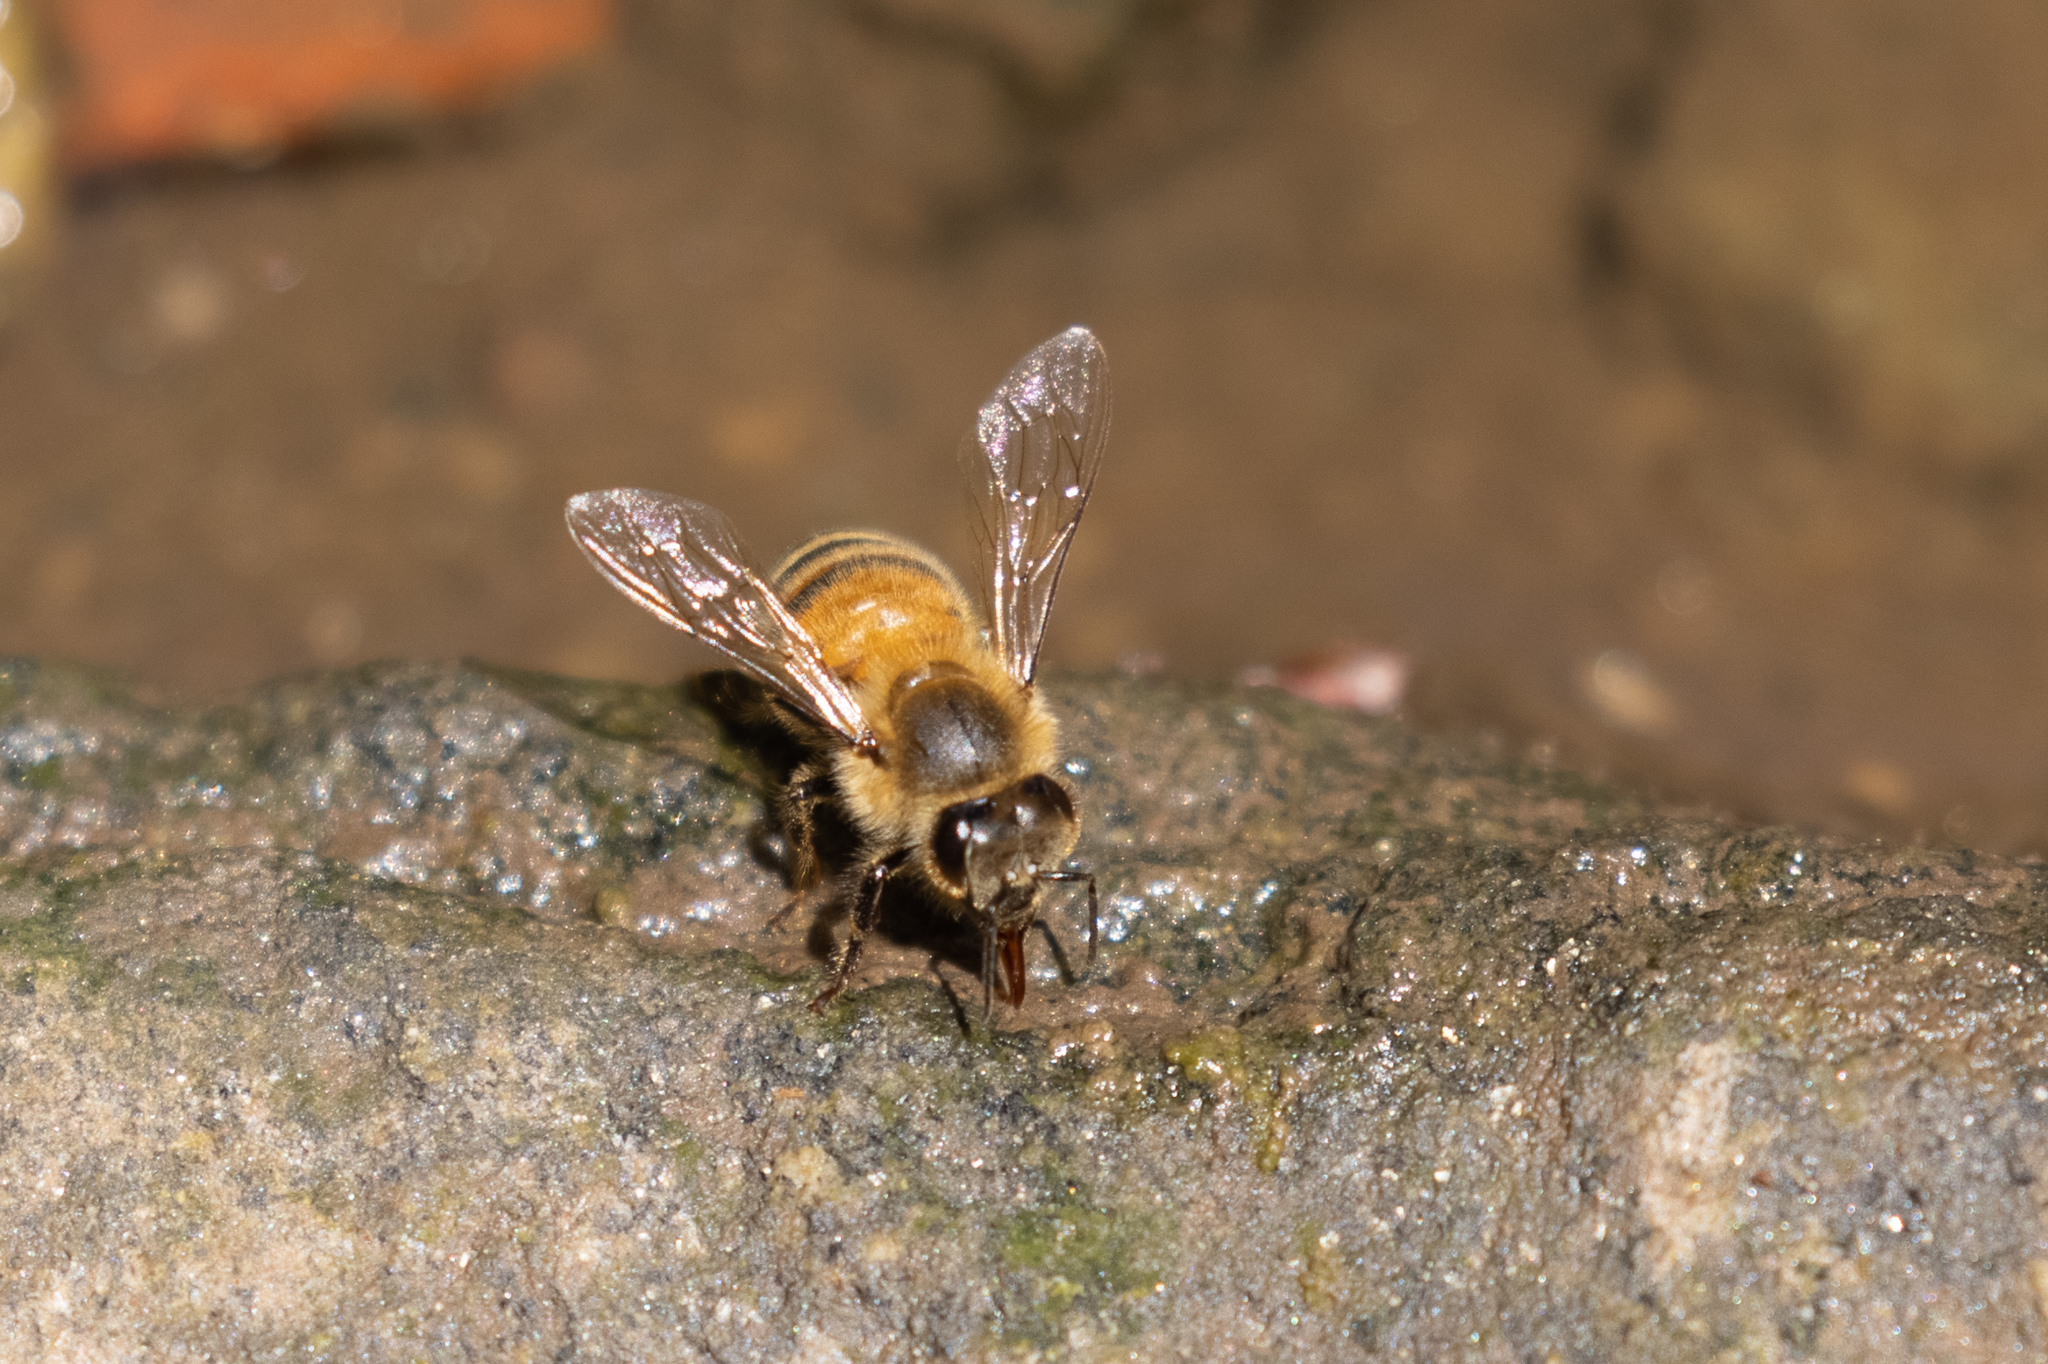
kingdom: Animalia
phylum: Arthropoda
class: Insecta
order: Hymenoptera
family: Apidae
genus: Apis
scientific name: Apis mellifera
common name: Honey bee
